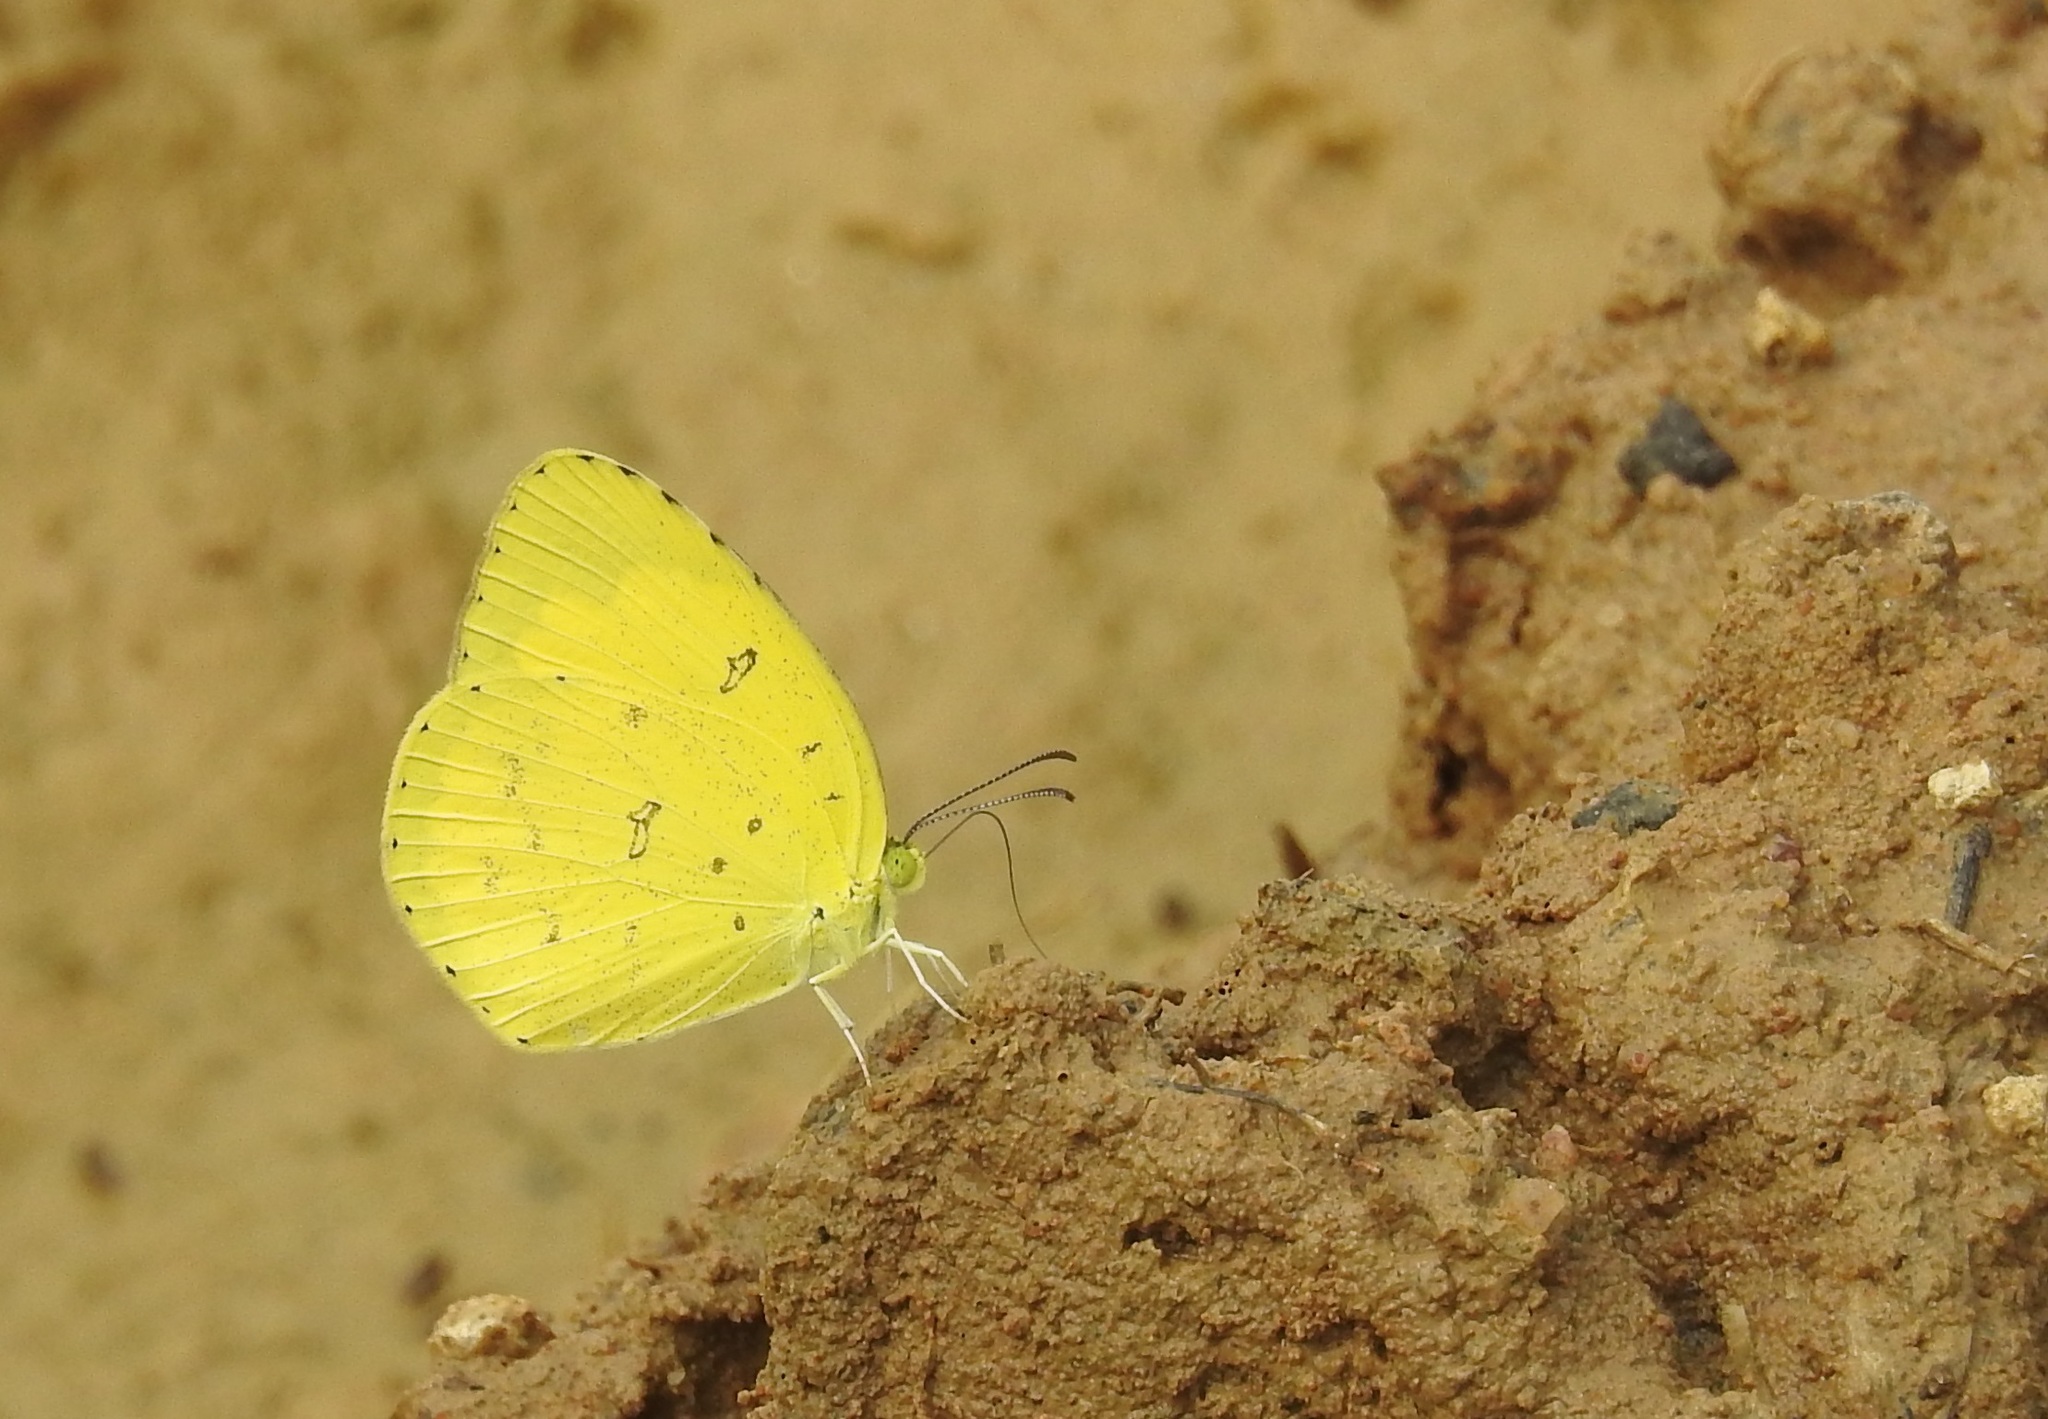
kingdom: Animalia
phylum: Arthropoda
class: Insecta
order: Lepidoptera
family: Pieridae
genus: Eurema
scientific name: Eurema hecabe
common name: Pale grass yellow
